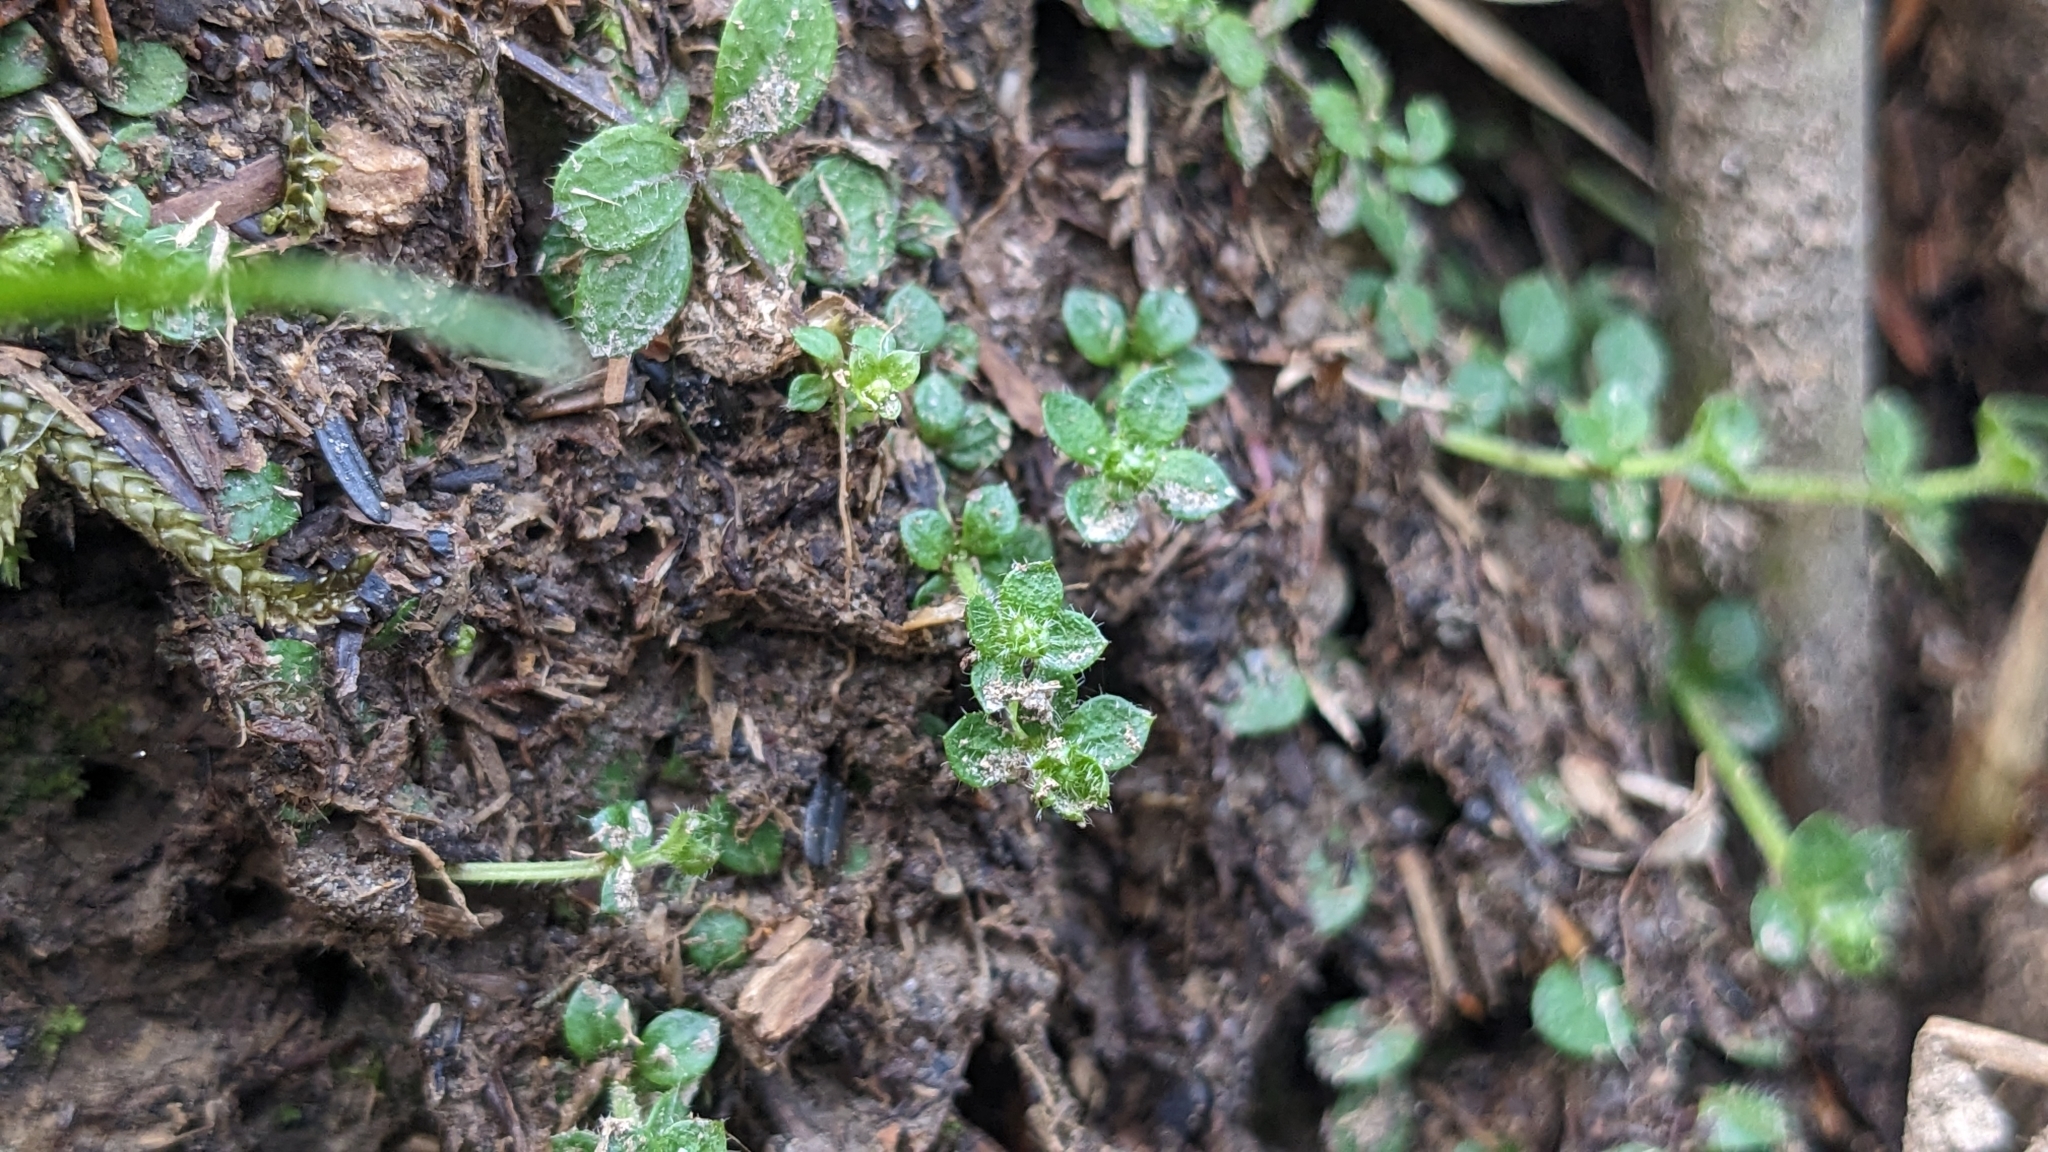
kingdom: Plantae
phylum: Tracheophyta
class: Magnoliopsida
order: Gentianales
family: Rubiaceae
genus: Galium
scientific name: Galium formosense
